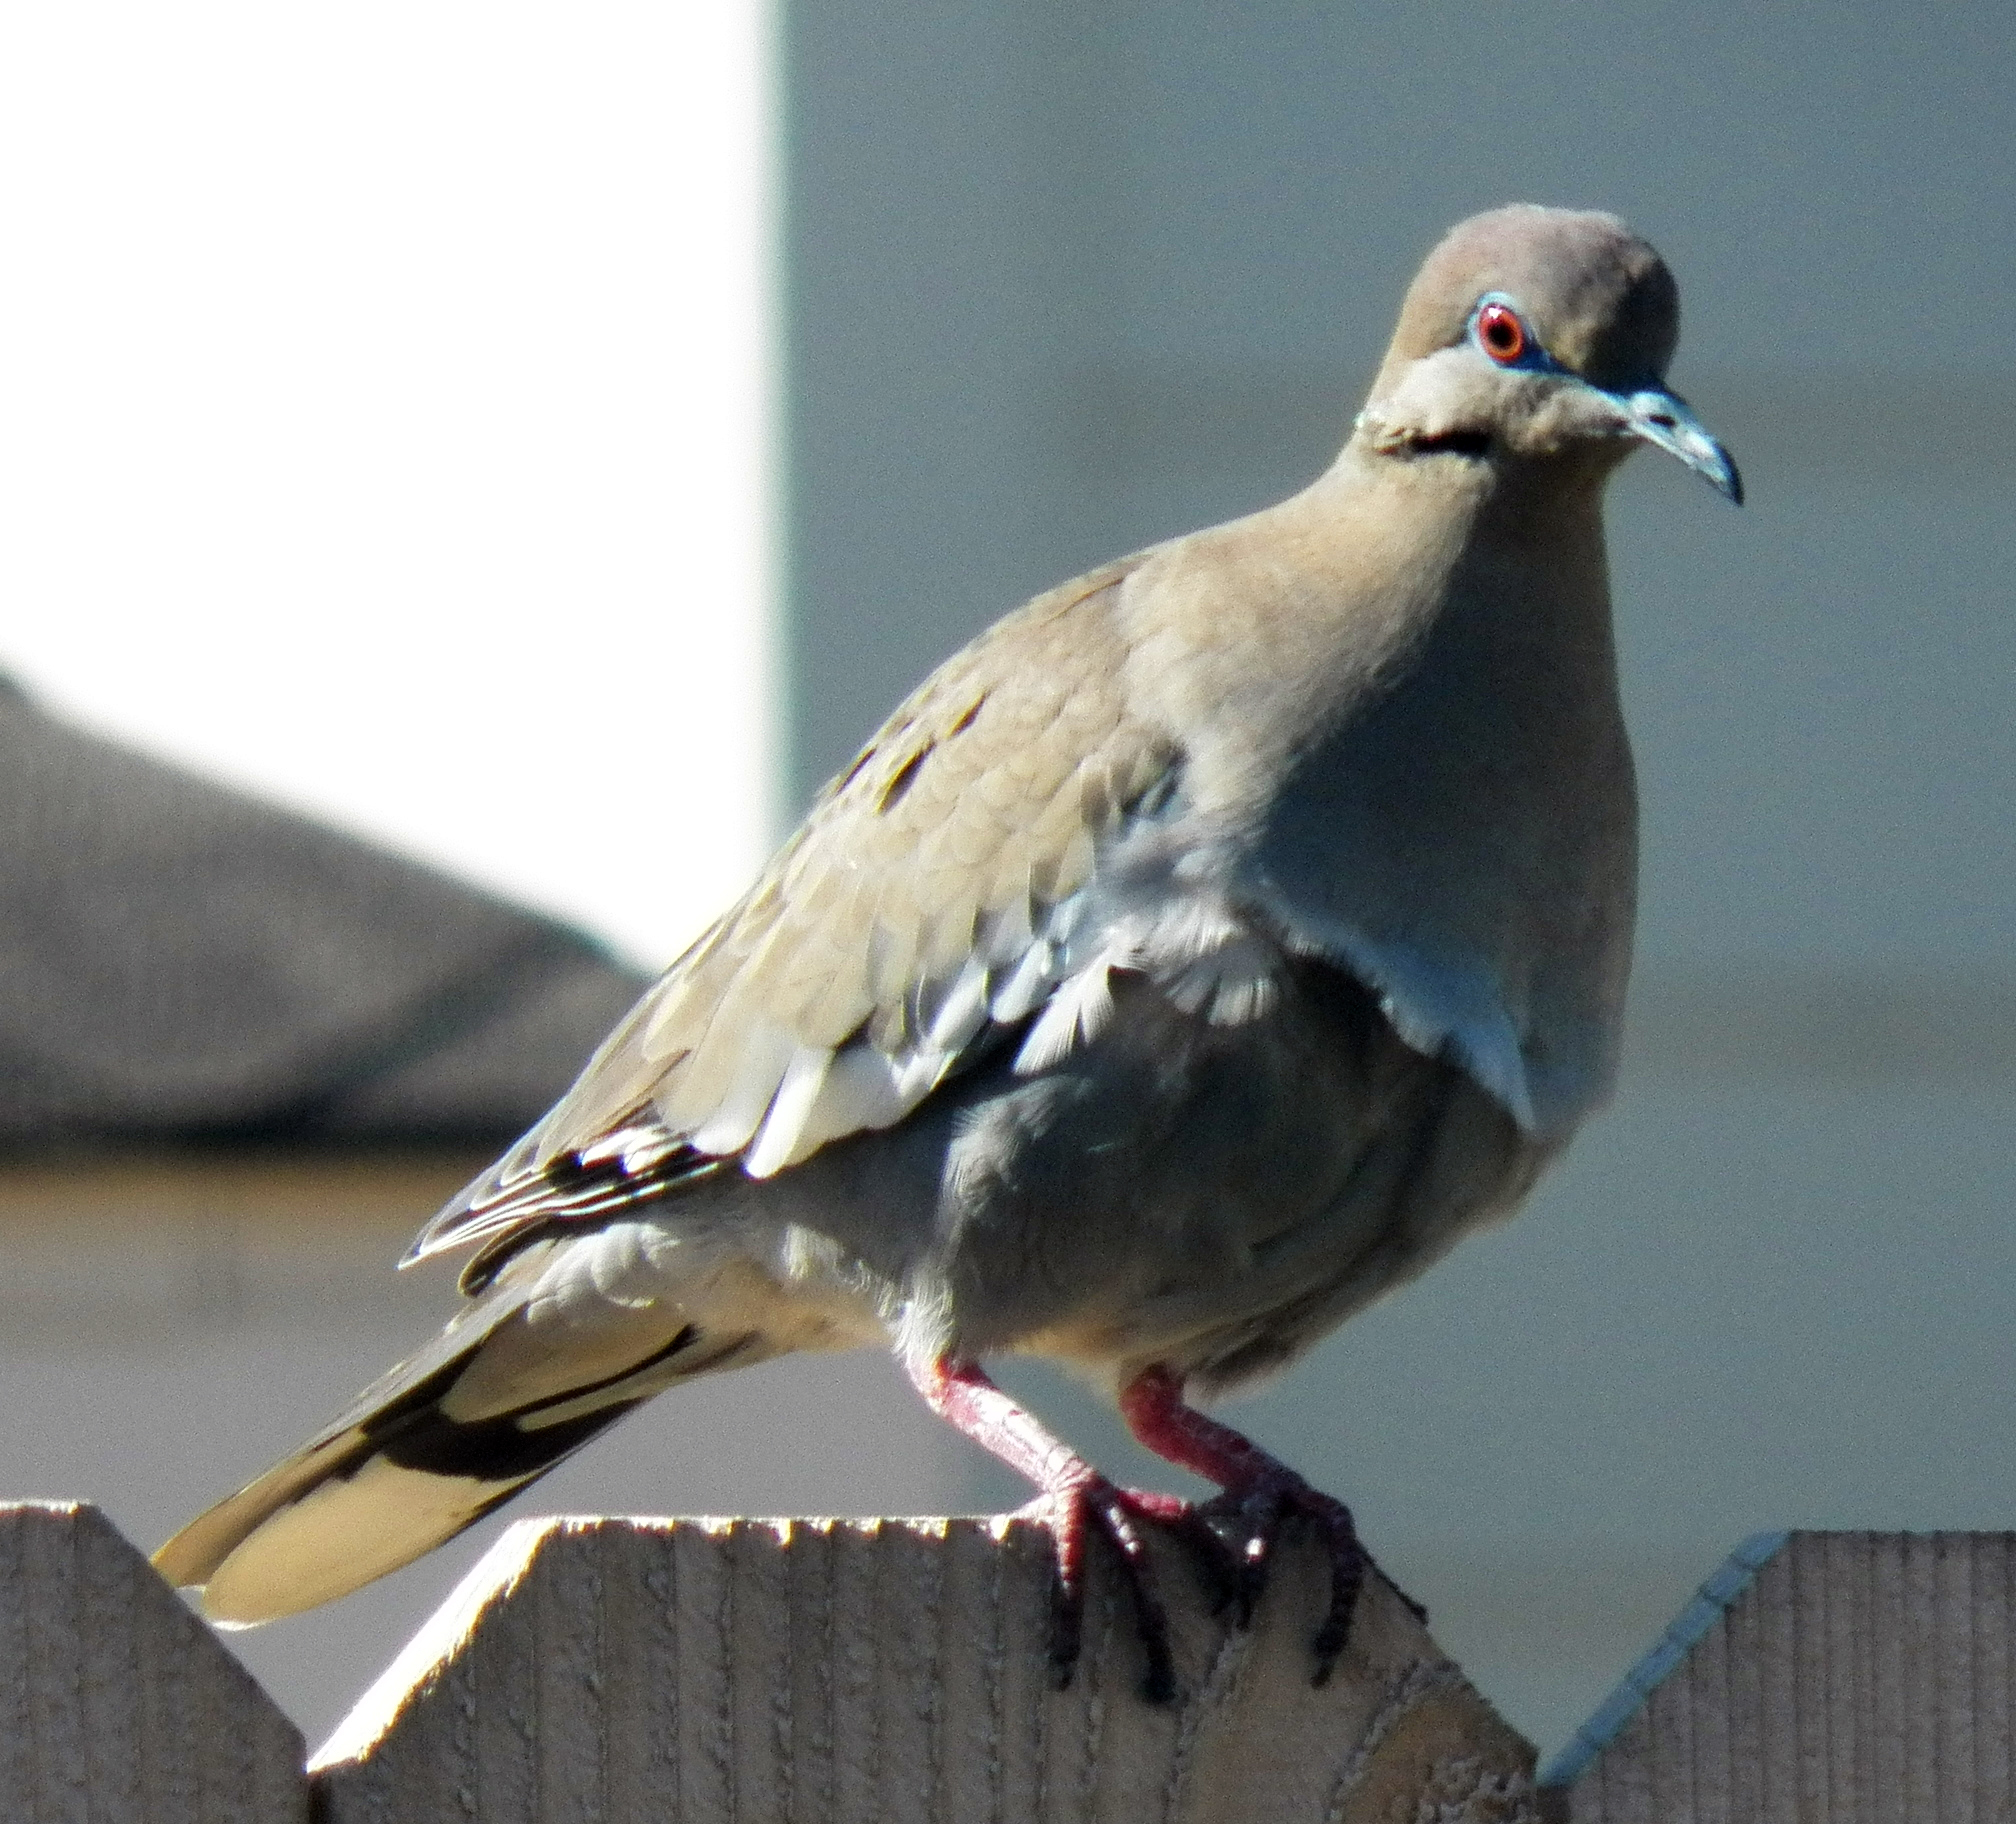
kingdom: Animalia
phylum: Chordata
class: Aves
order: Columbiformes
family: Columbidae
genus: Zenaida
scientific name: Zenaida asiatica
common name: White-winged dove
